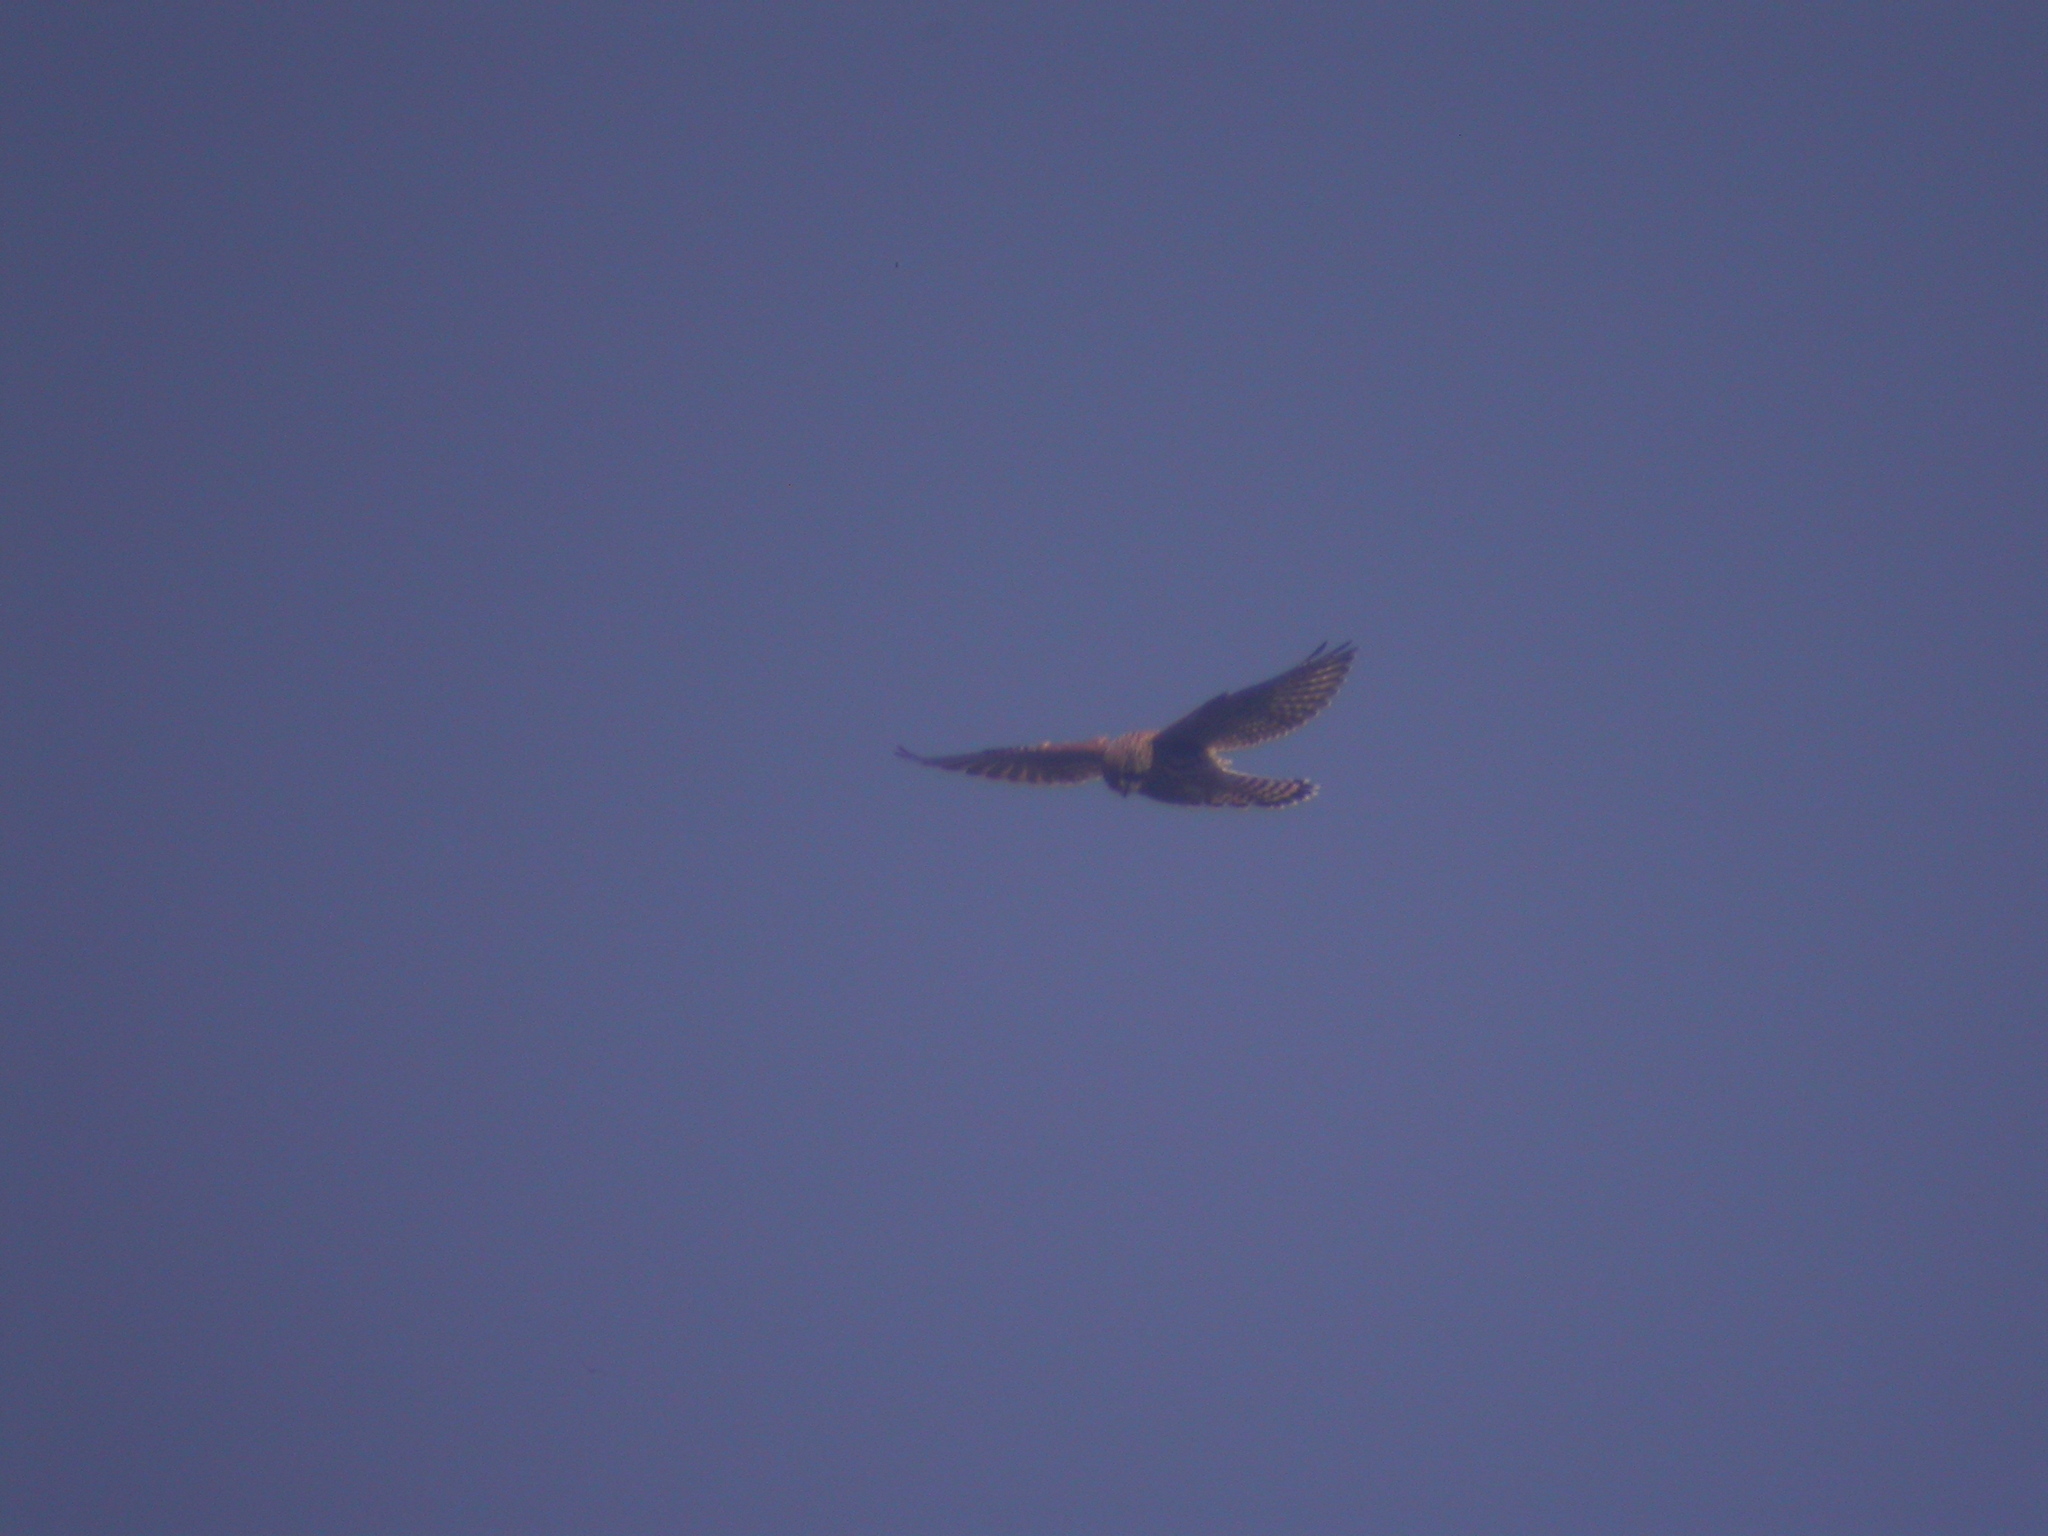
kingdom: Animalia
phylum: Chordata
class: Aves
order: Falconiformes
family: Falconidae
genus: Falco
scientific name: Falco tinnunculus
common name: Common kestrel
